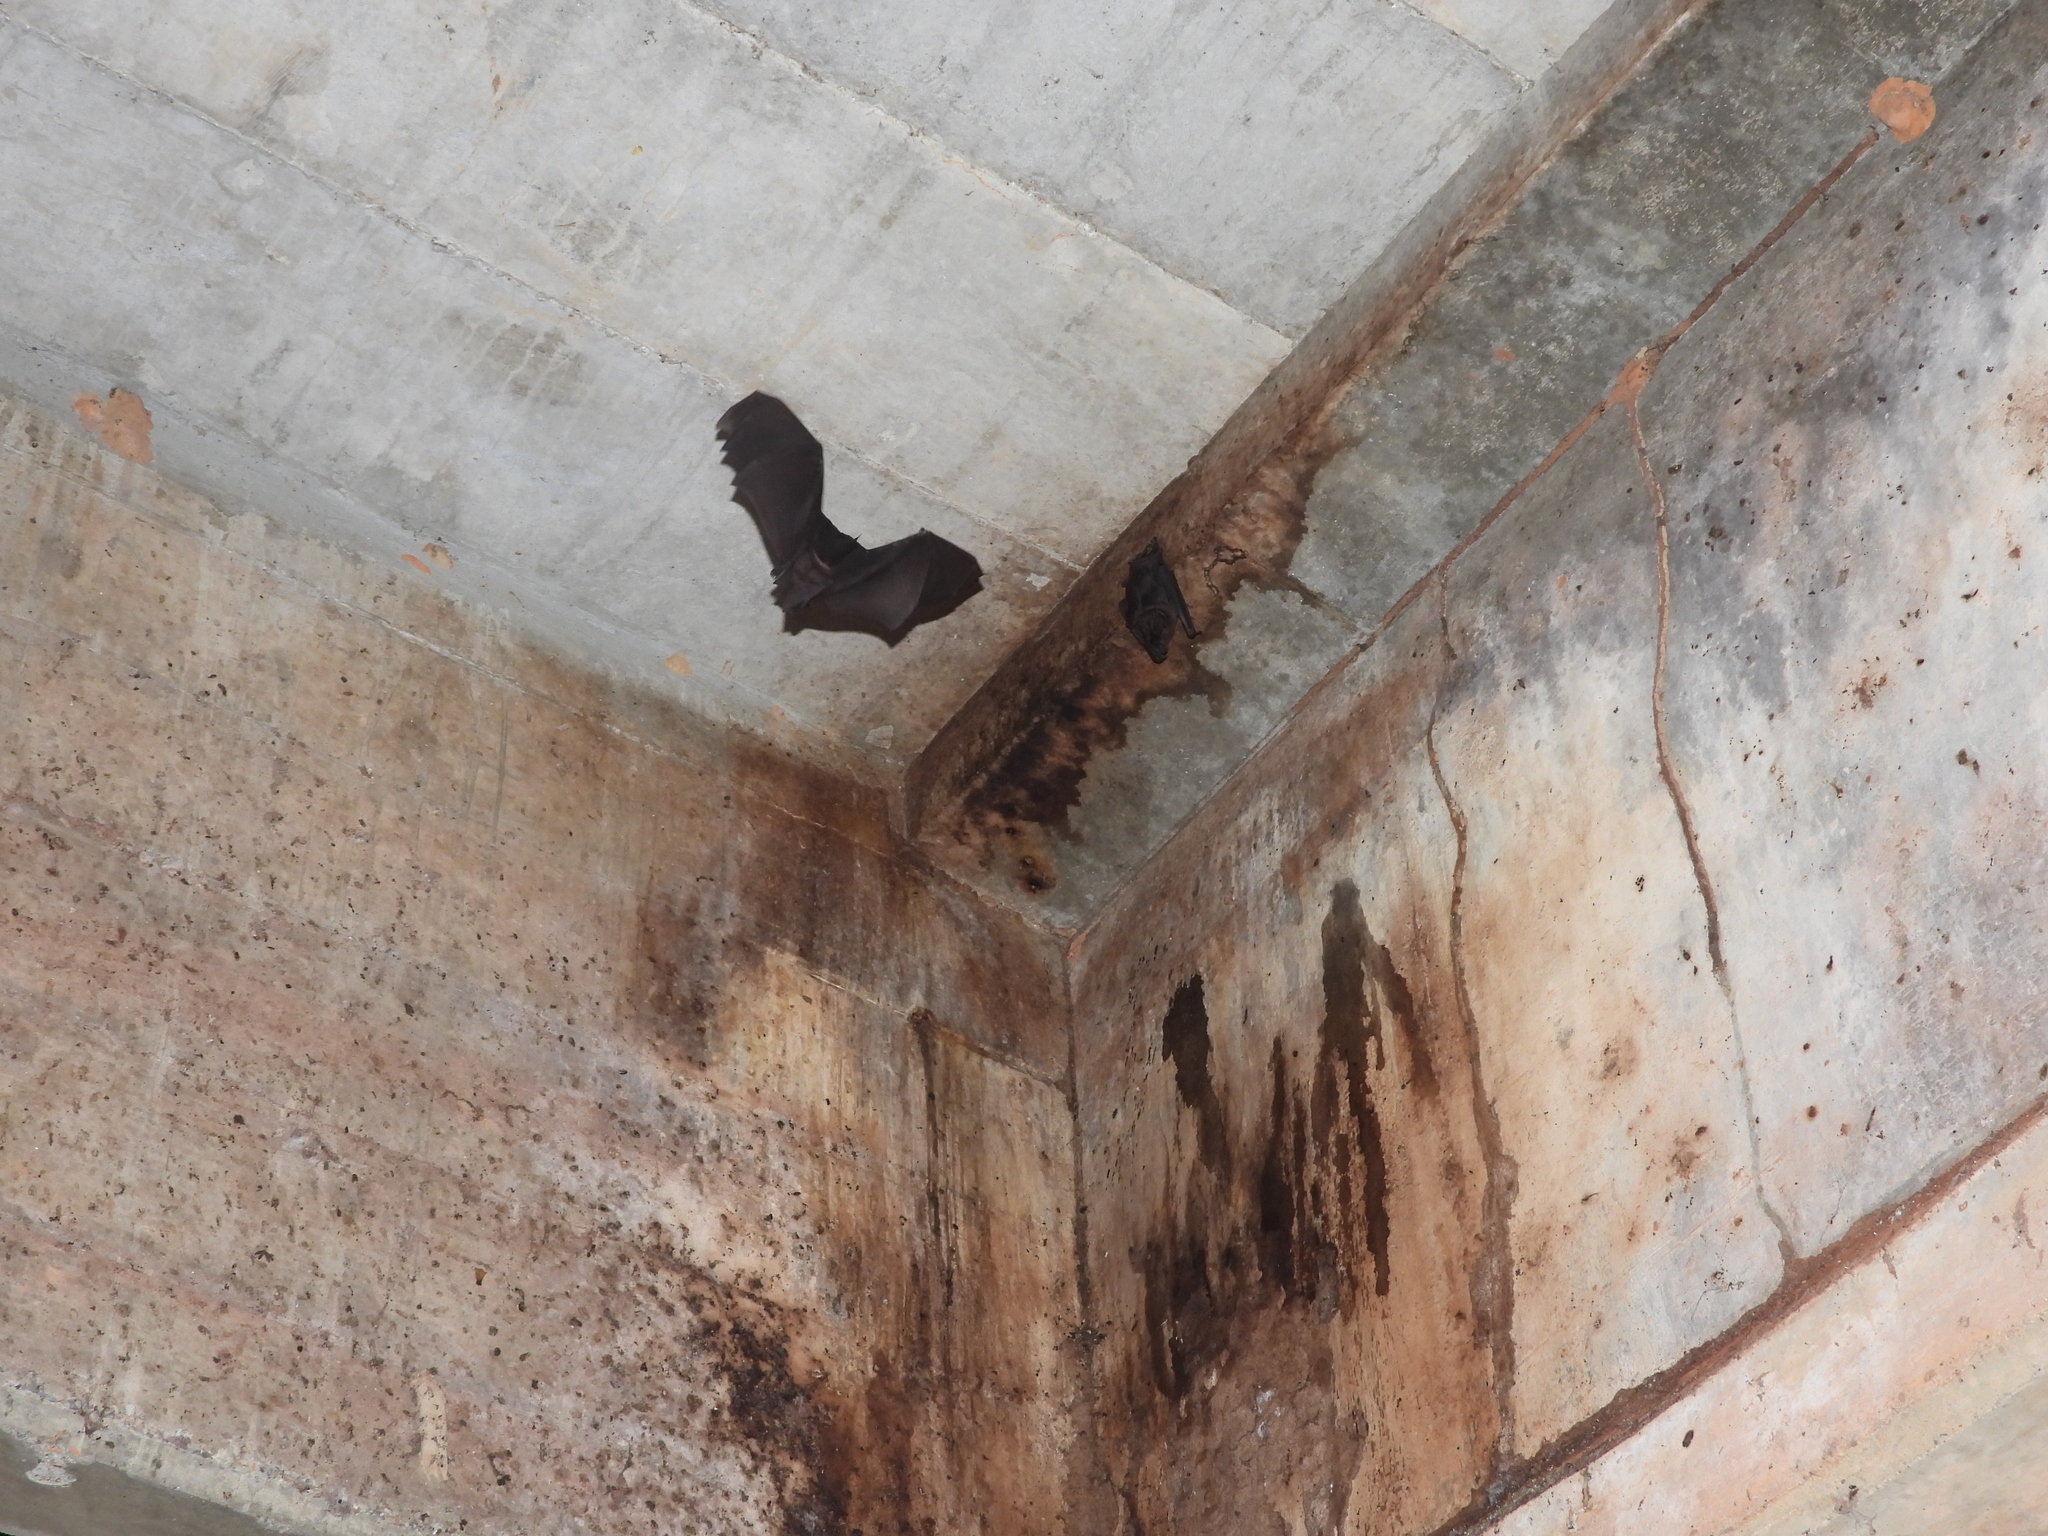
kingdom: Animalia
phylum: Chordata
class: Mammalia
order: Chiroptera
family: Phyllostomidae
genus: Phyllostomus
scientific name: Phyllostomus hastatus
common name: Greater spear-nosed bat
